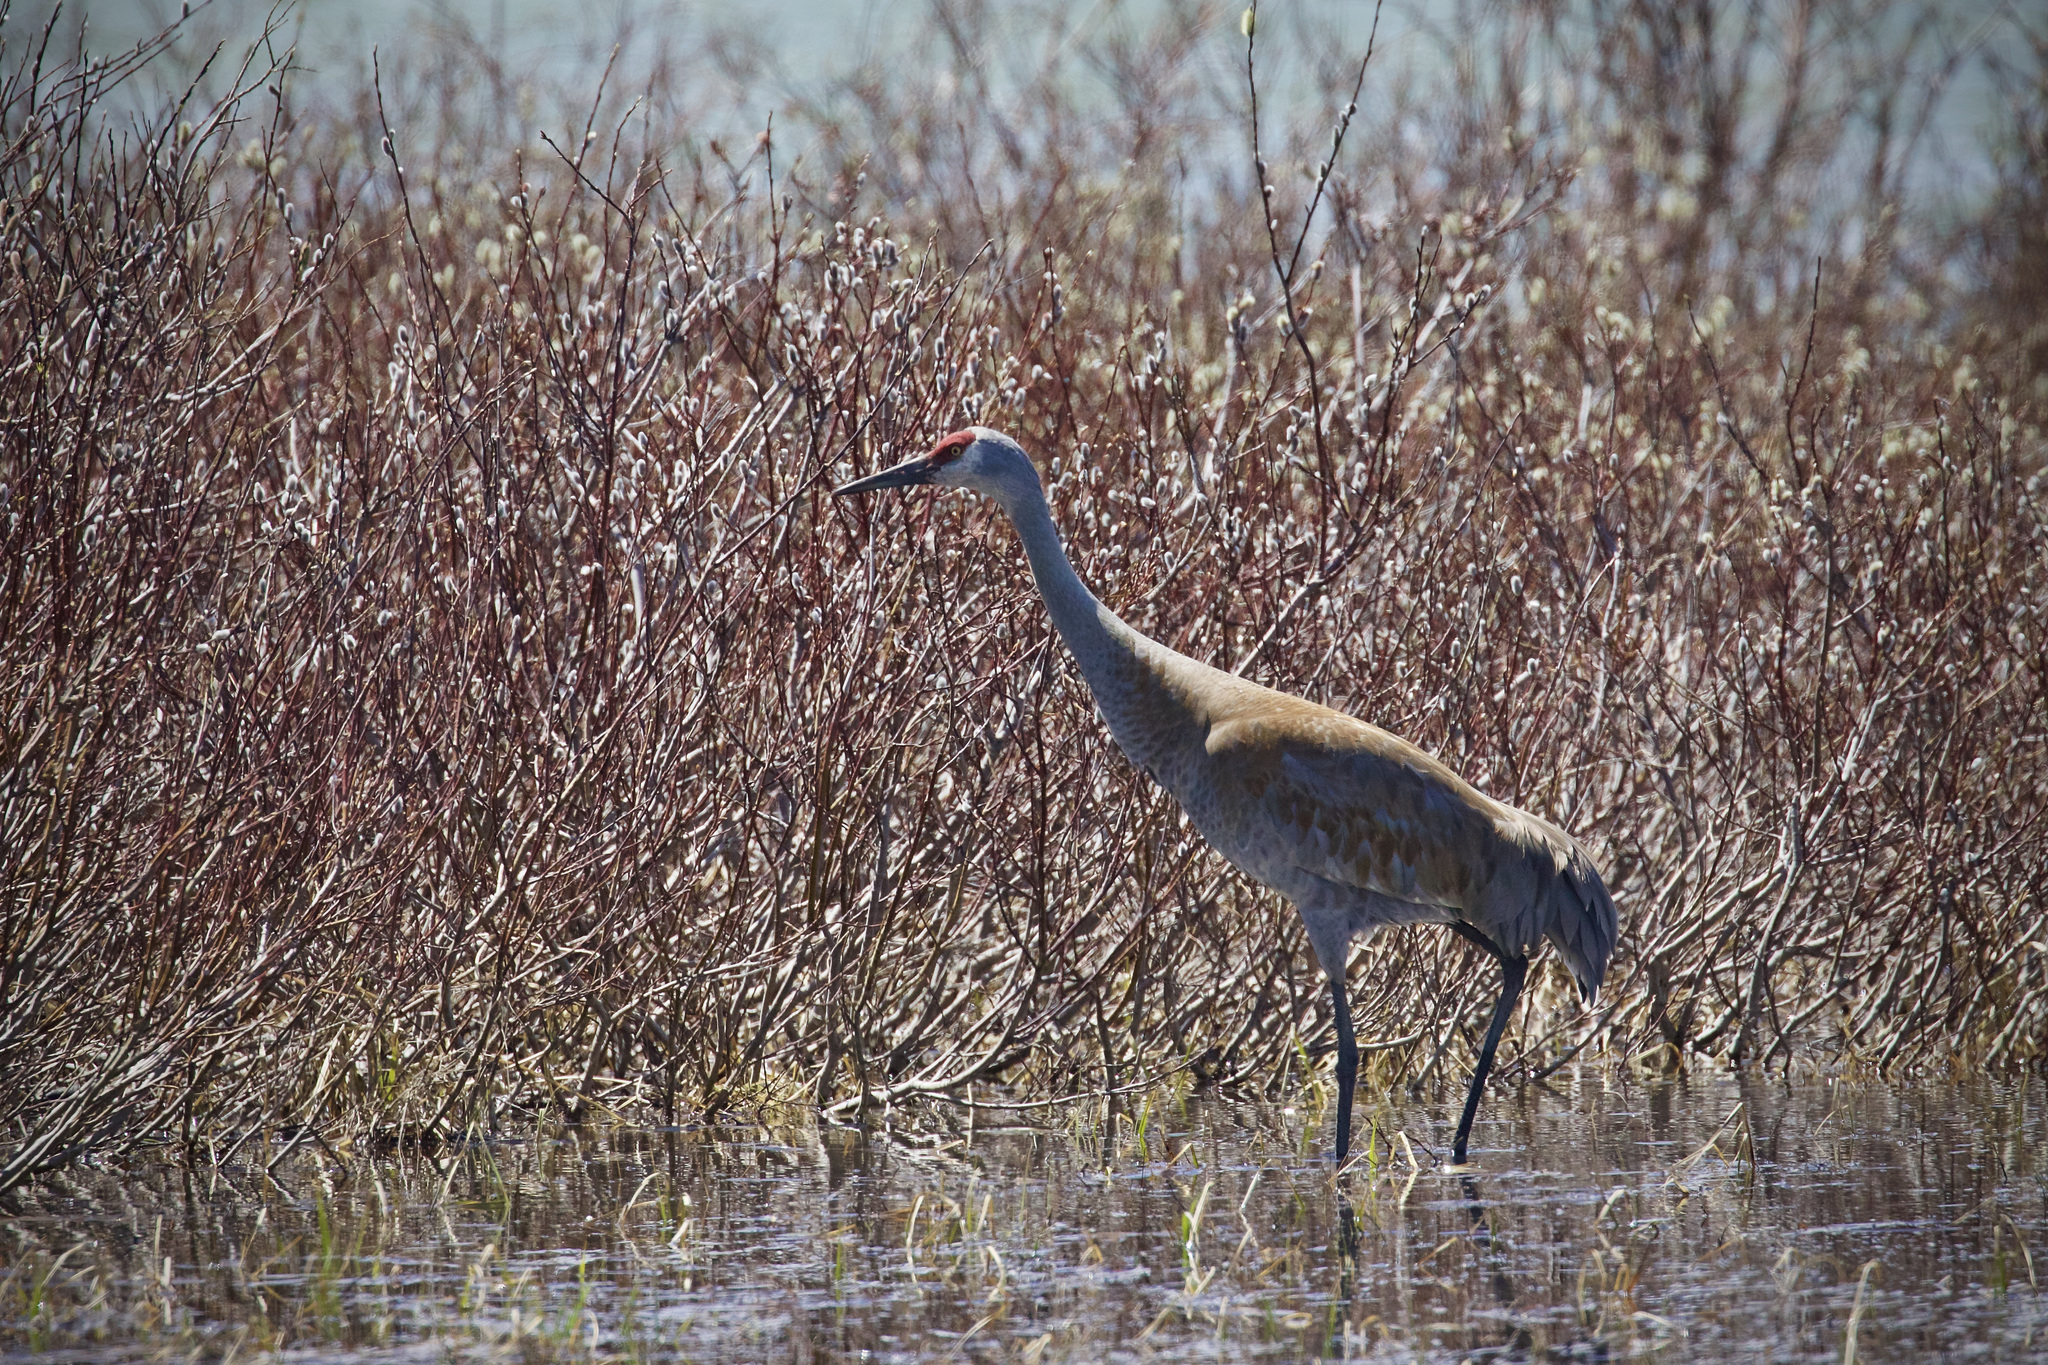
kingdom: Animalia
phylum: Chordata
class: Aves
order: Gruiformes
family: Gruidae
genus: Grus
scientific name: Grus canadensis
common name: Sandhill crane
